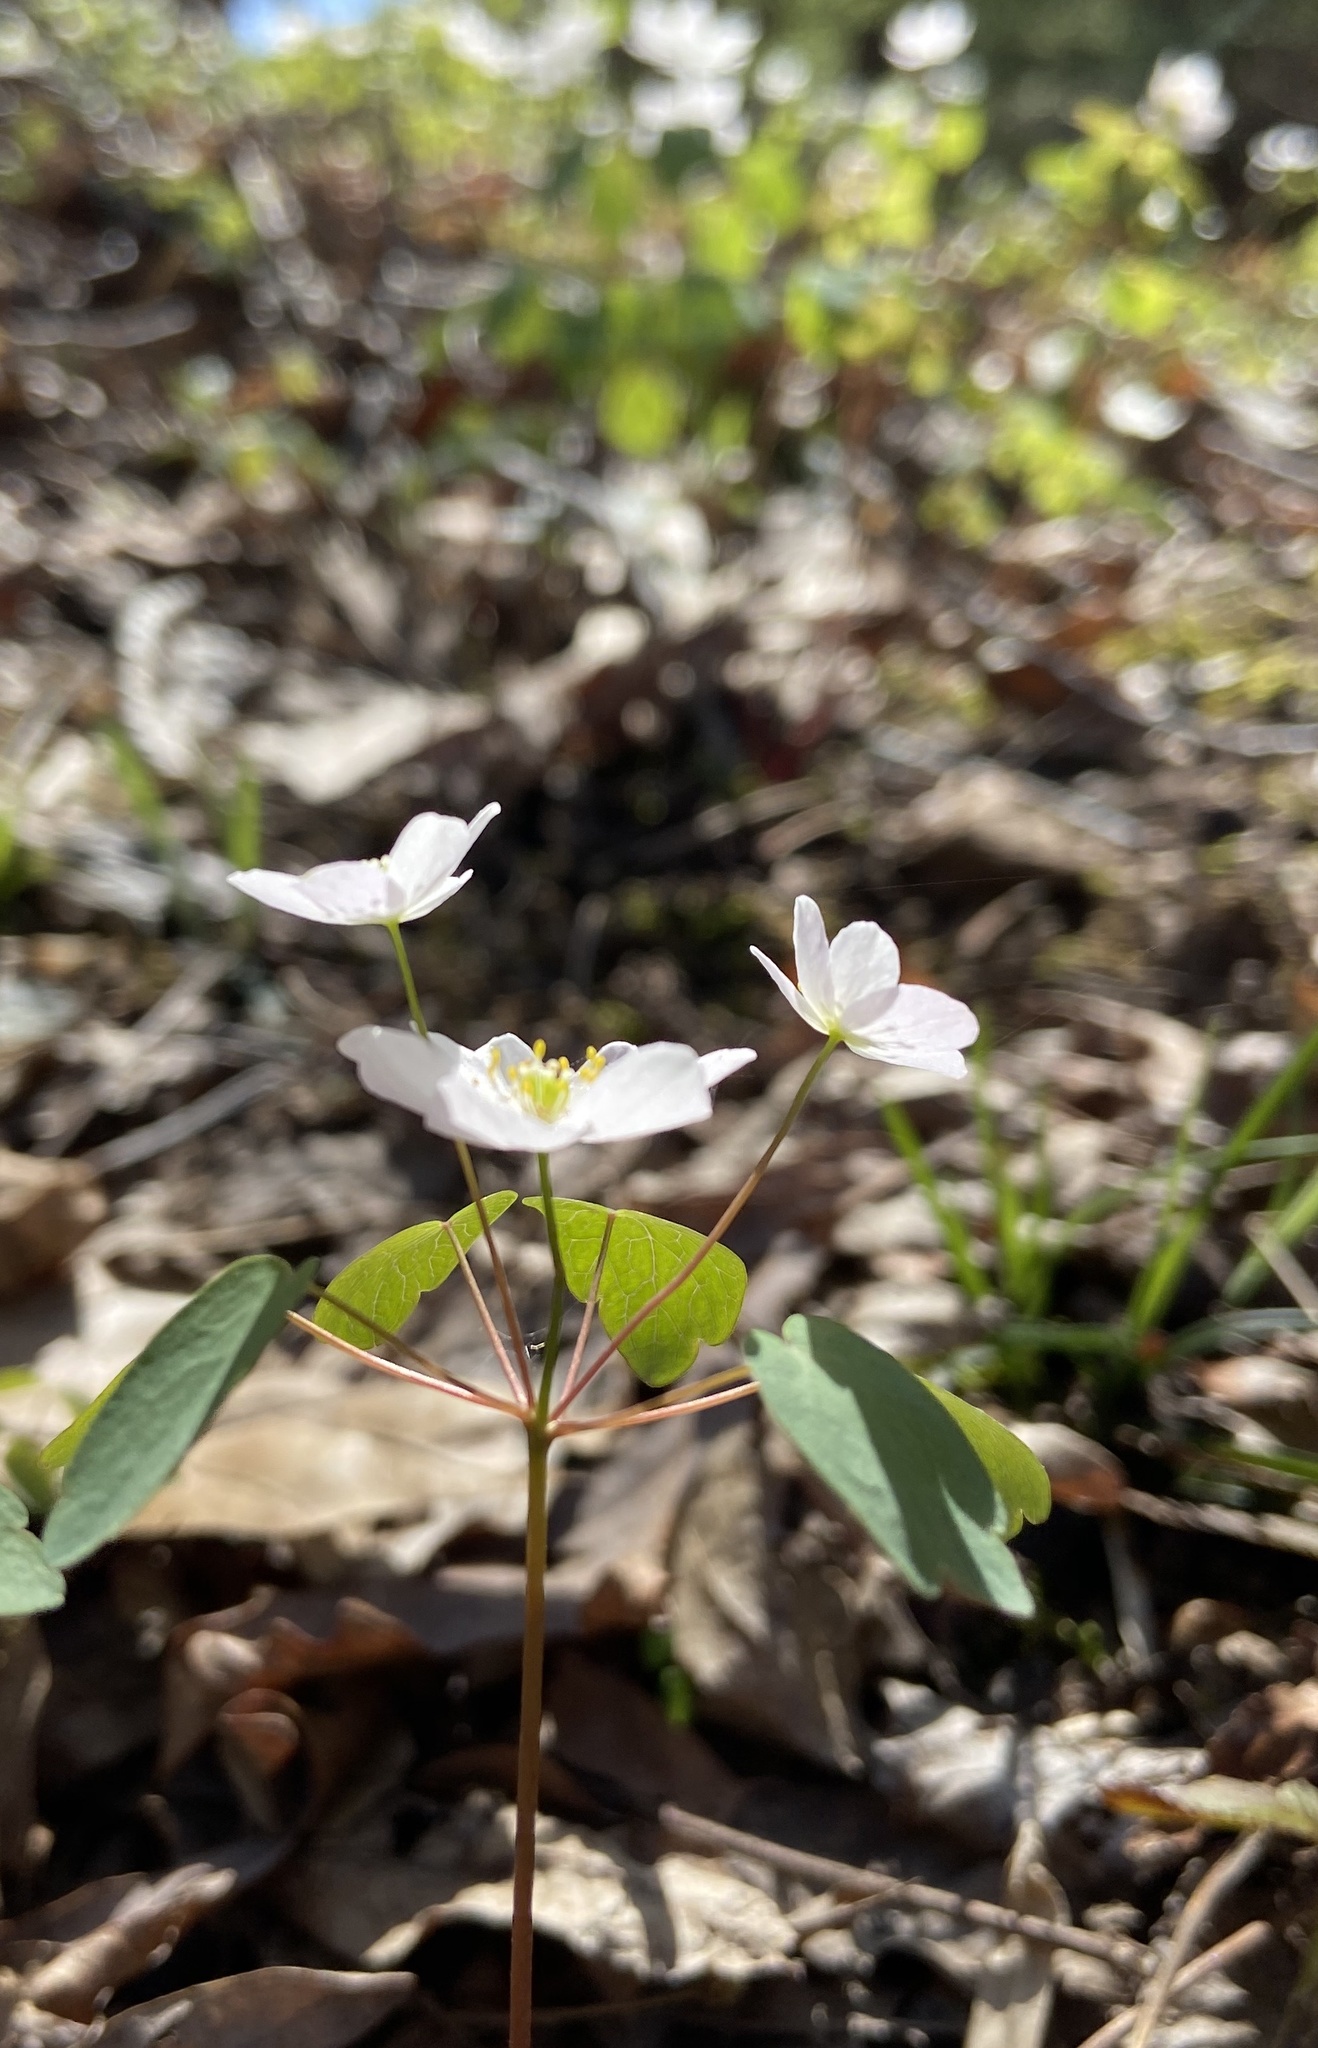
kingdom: Plantae
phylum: Tracheophyta
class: Magnoliopsida
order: Ranunculales
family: Ranunculaceae
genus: Thalictrum
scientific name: Thalictrum thalictroides
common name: Rue-anemone
